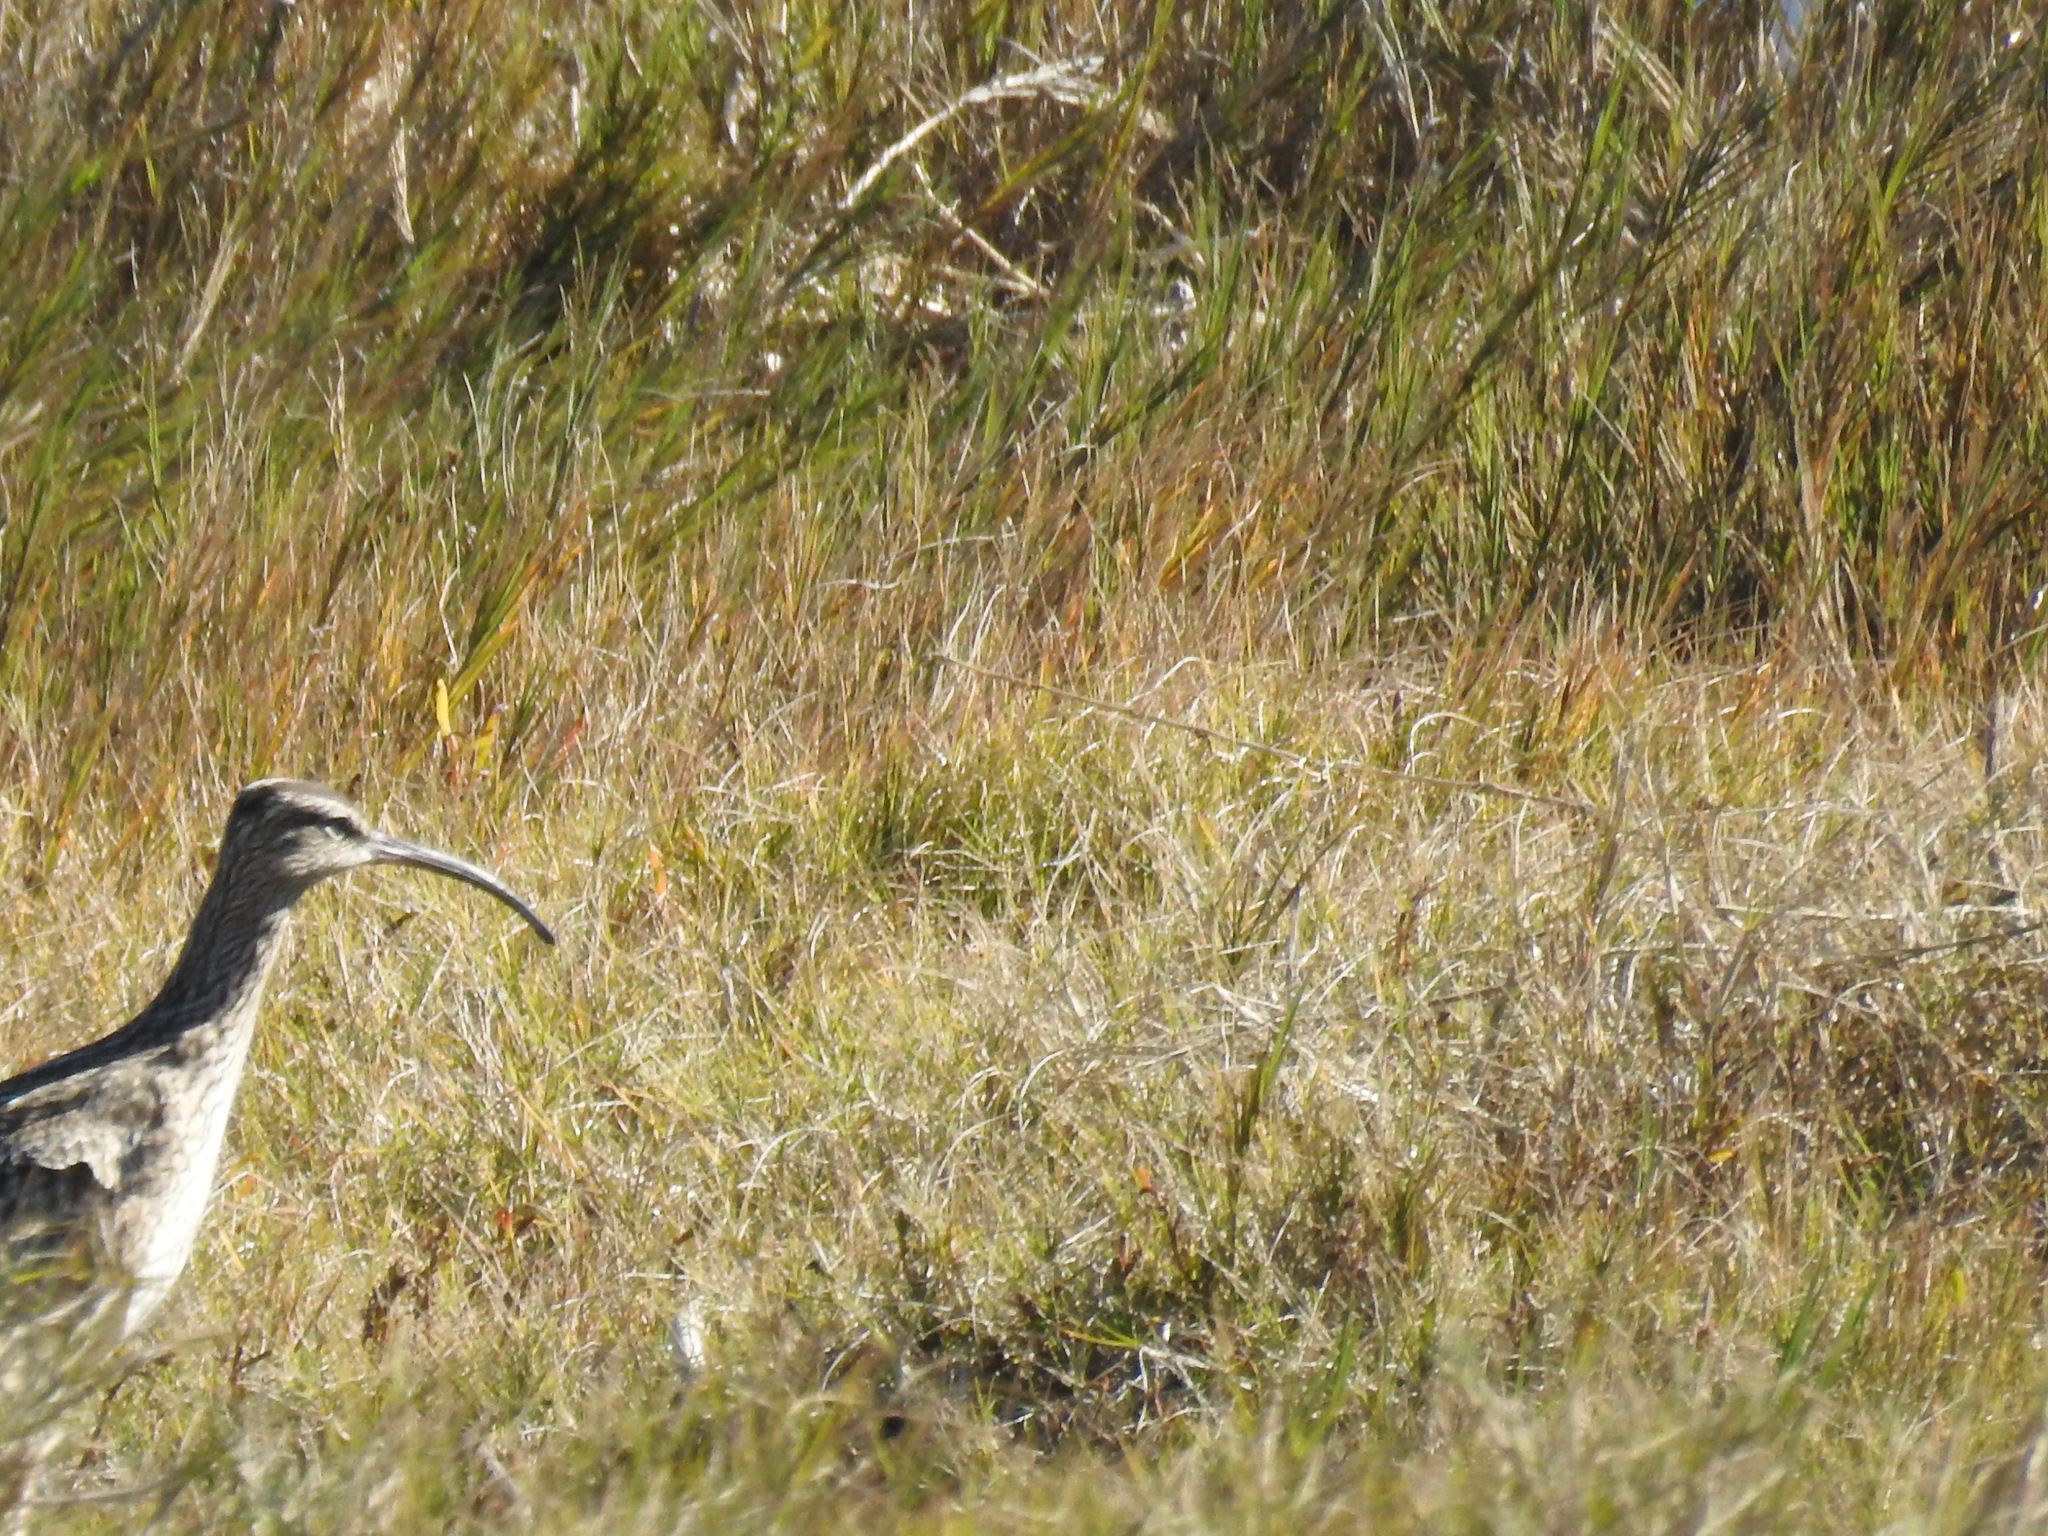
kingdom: Animalia
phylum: Chordata
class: Aves
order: Charadriiformes
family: Scolopacidae
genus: Numenius
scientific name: Numenius phaeopus
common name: Whimbrel
